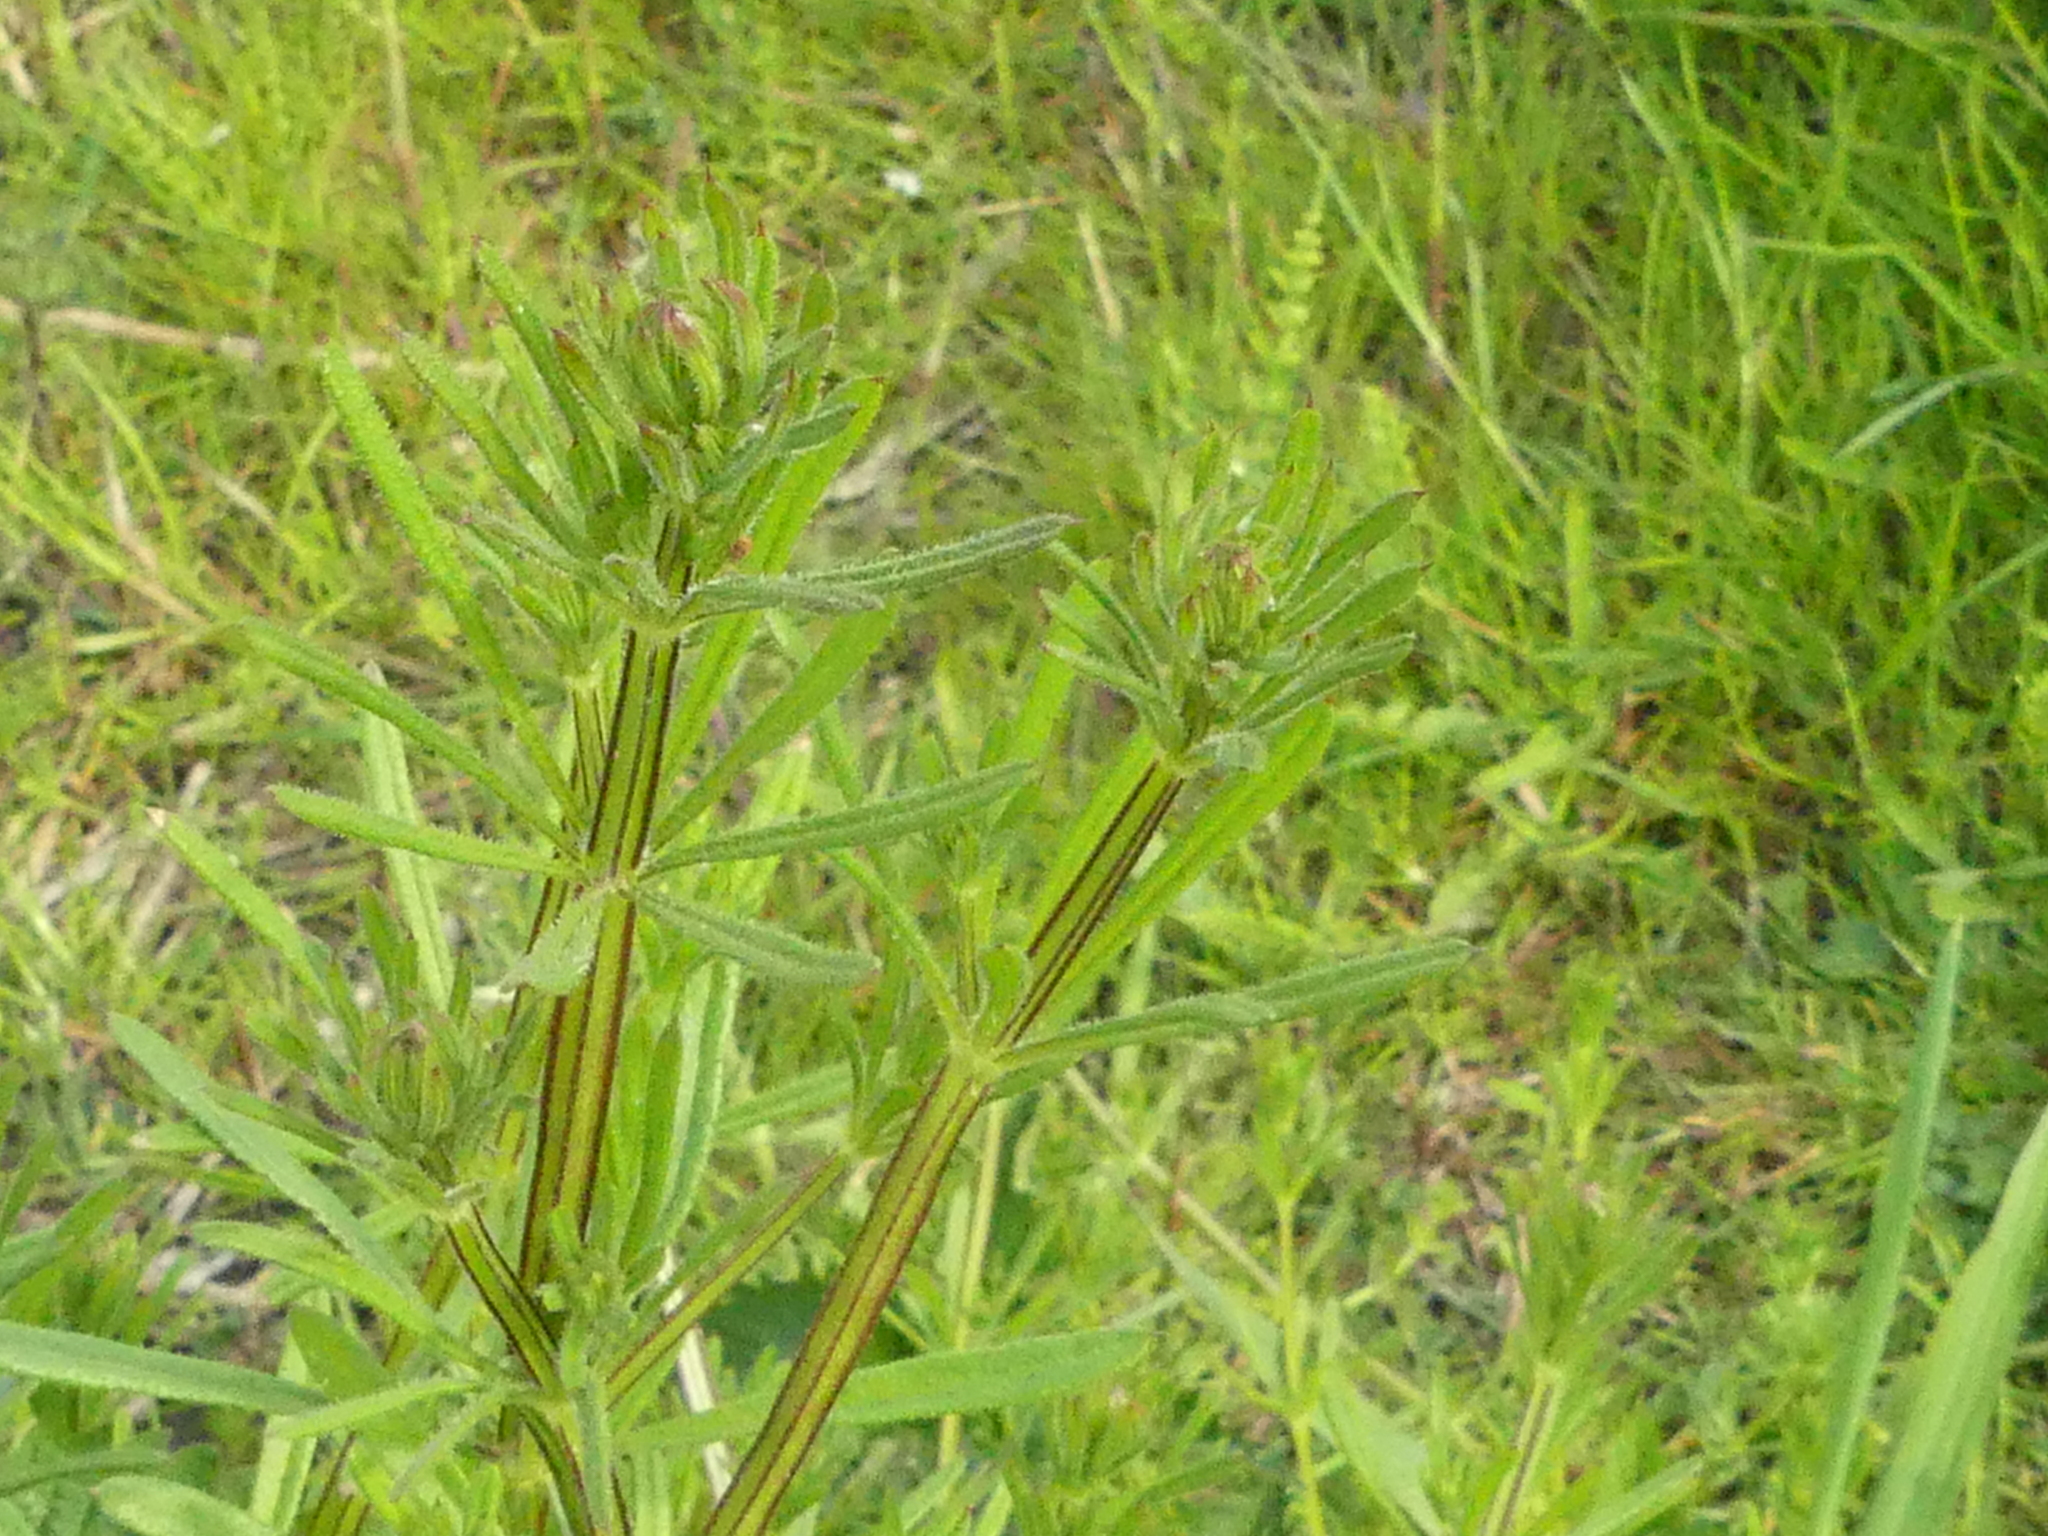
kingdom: Plantae
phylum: Tracheophyta
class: Magnoliopsida
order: Gentianales
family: Rubiaceae
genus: Galium
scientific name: Galium aparine
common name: Cleavers
